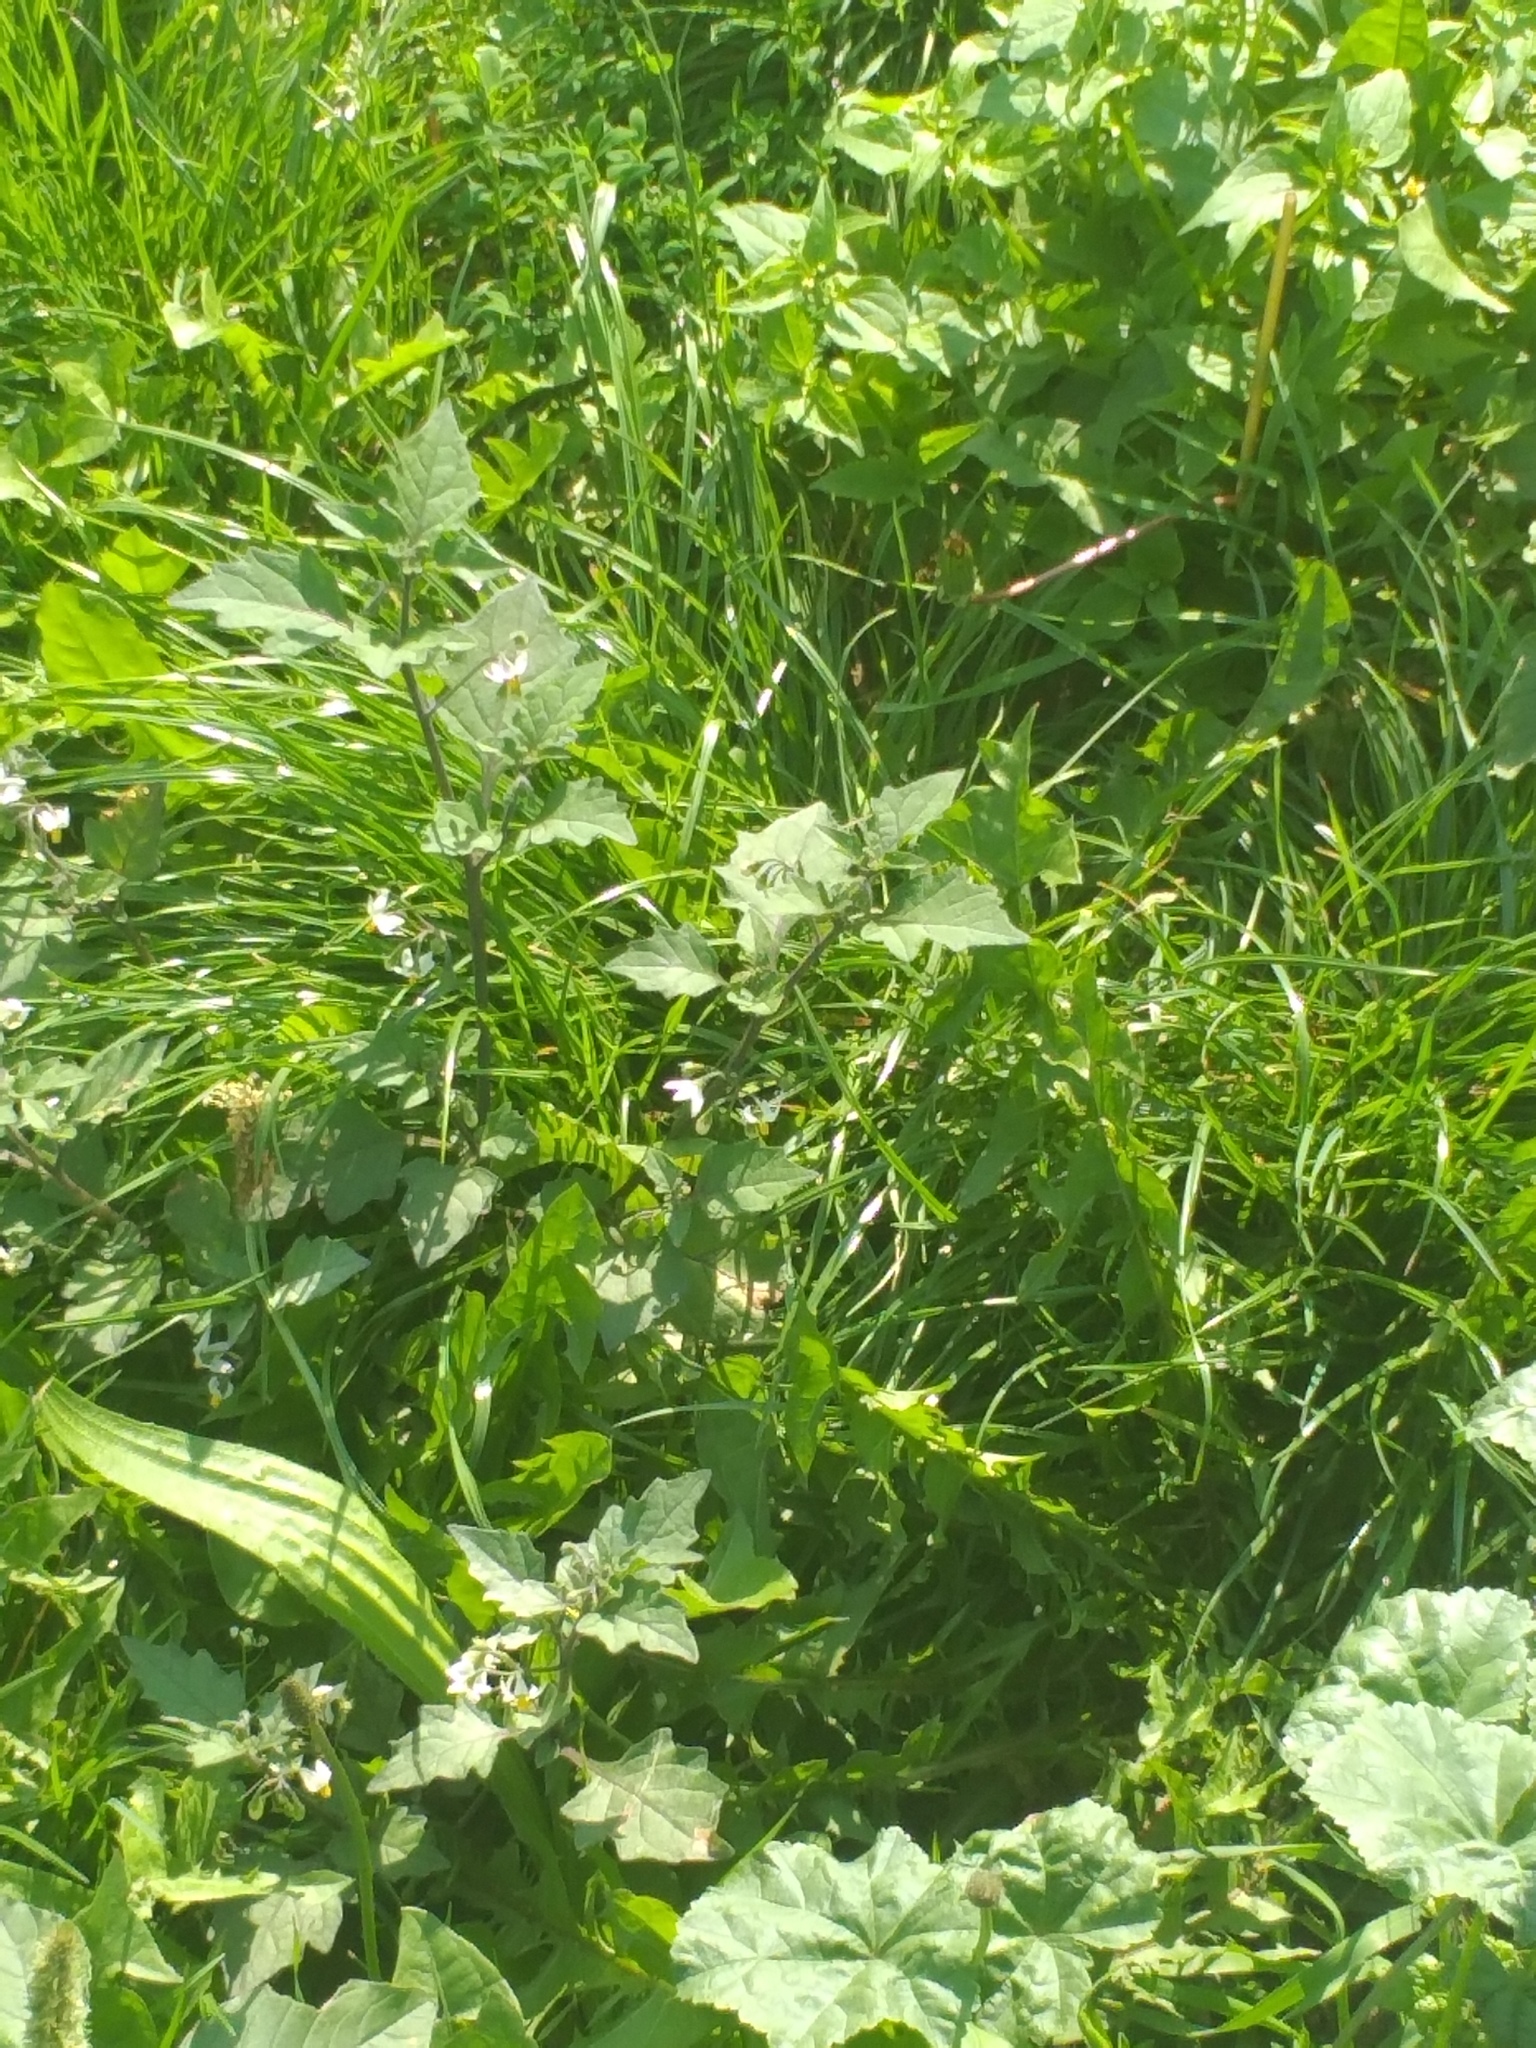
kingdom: Plantae
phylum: Tracheophyta
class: Magnoliopsida
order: Solanales
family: Solanaceae
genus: Solanum
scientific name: Solanum nigrum
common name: Black nightshade
